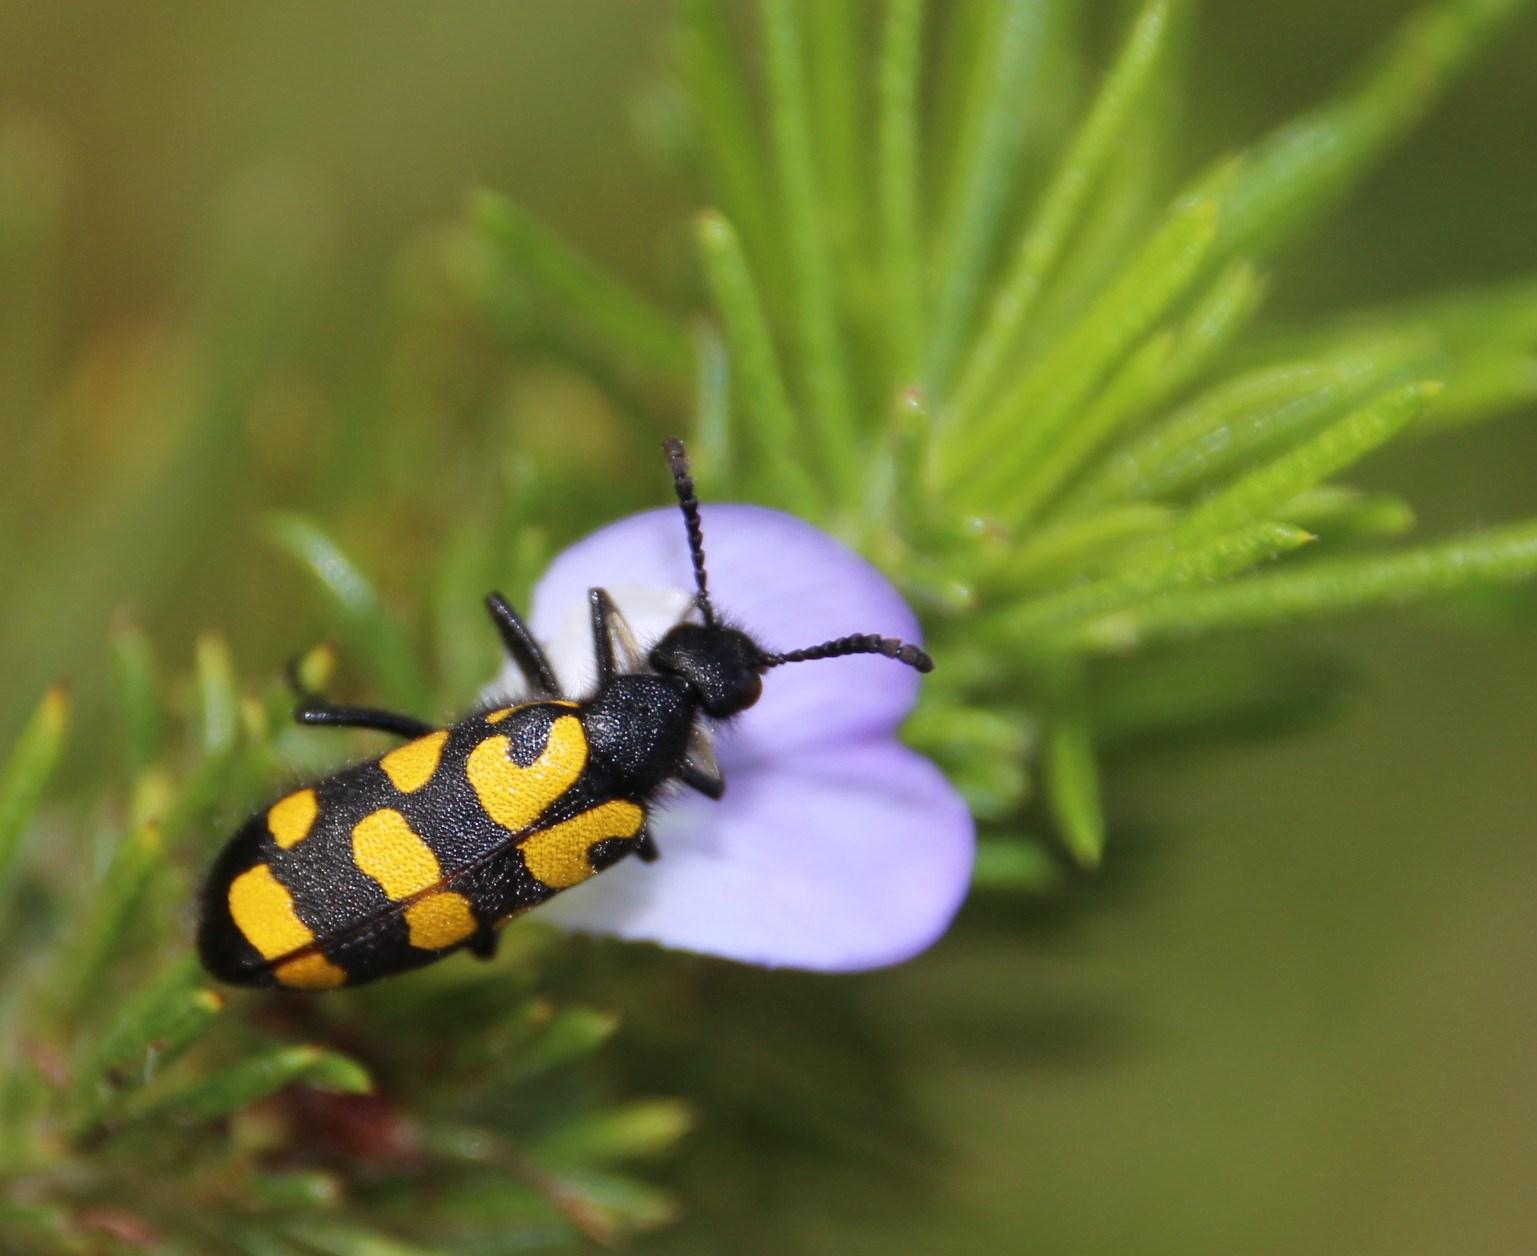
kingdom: Plantae
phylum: Tracheophyta
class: Magnoliopsida
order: Fabales
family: Fabaceae
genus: Psoralea
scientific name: Psoralea pinnata
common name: African scurfpea
